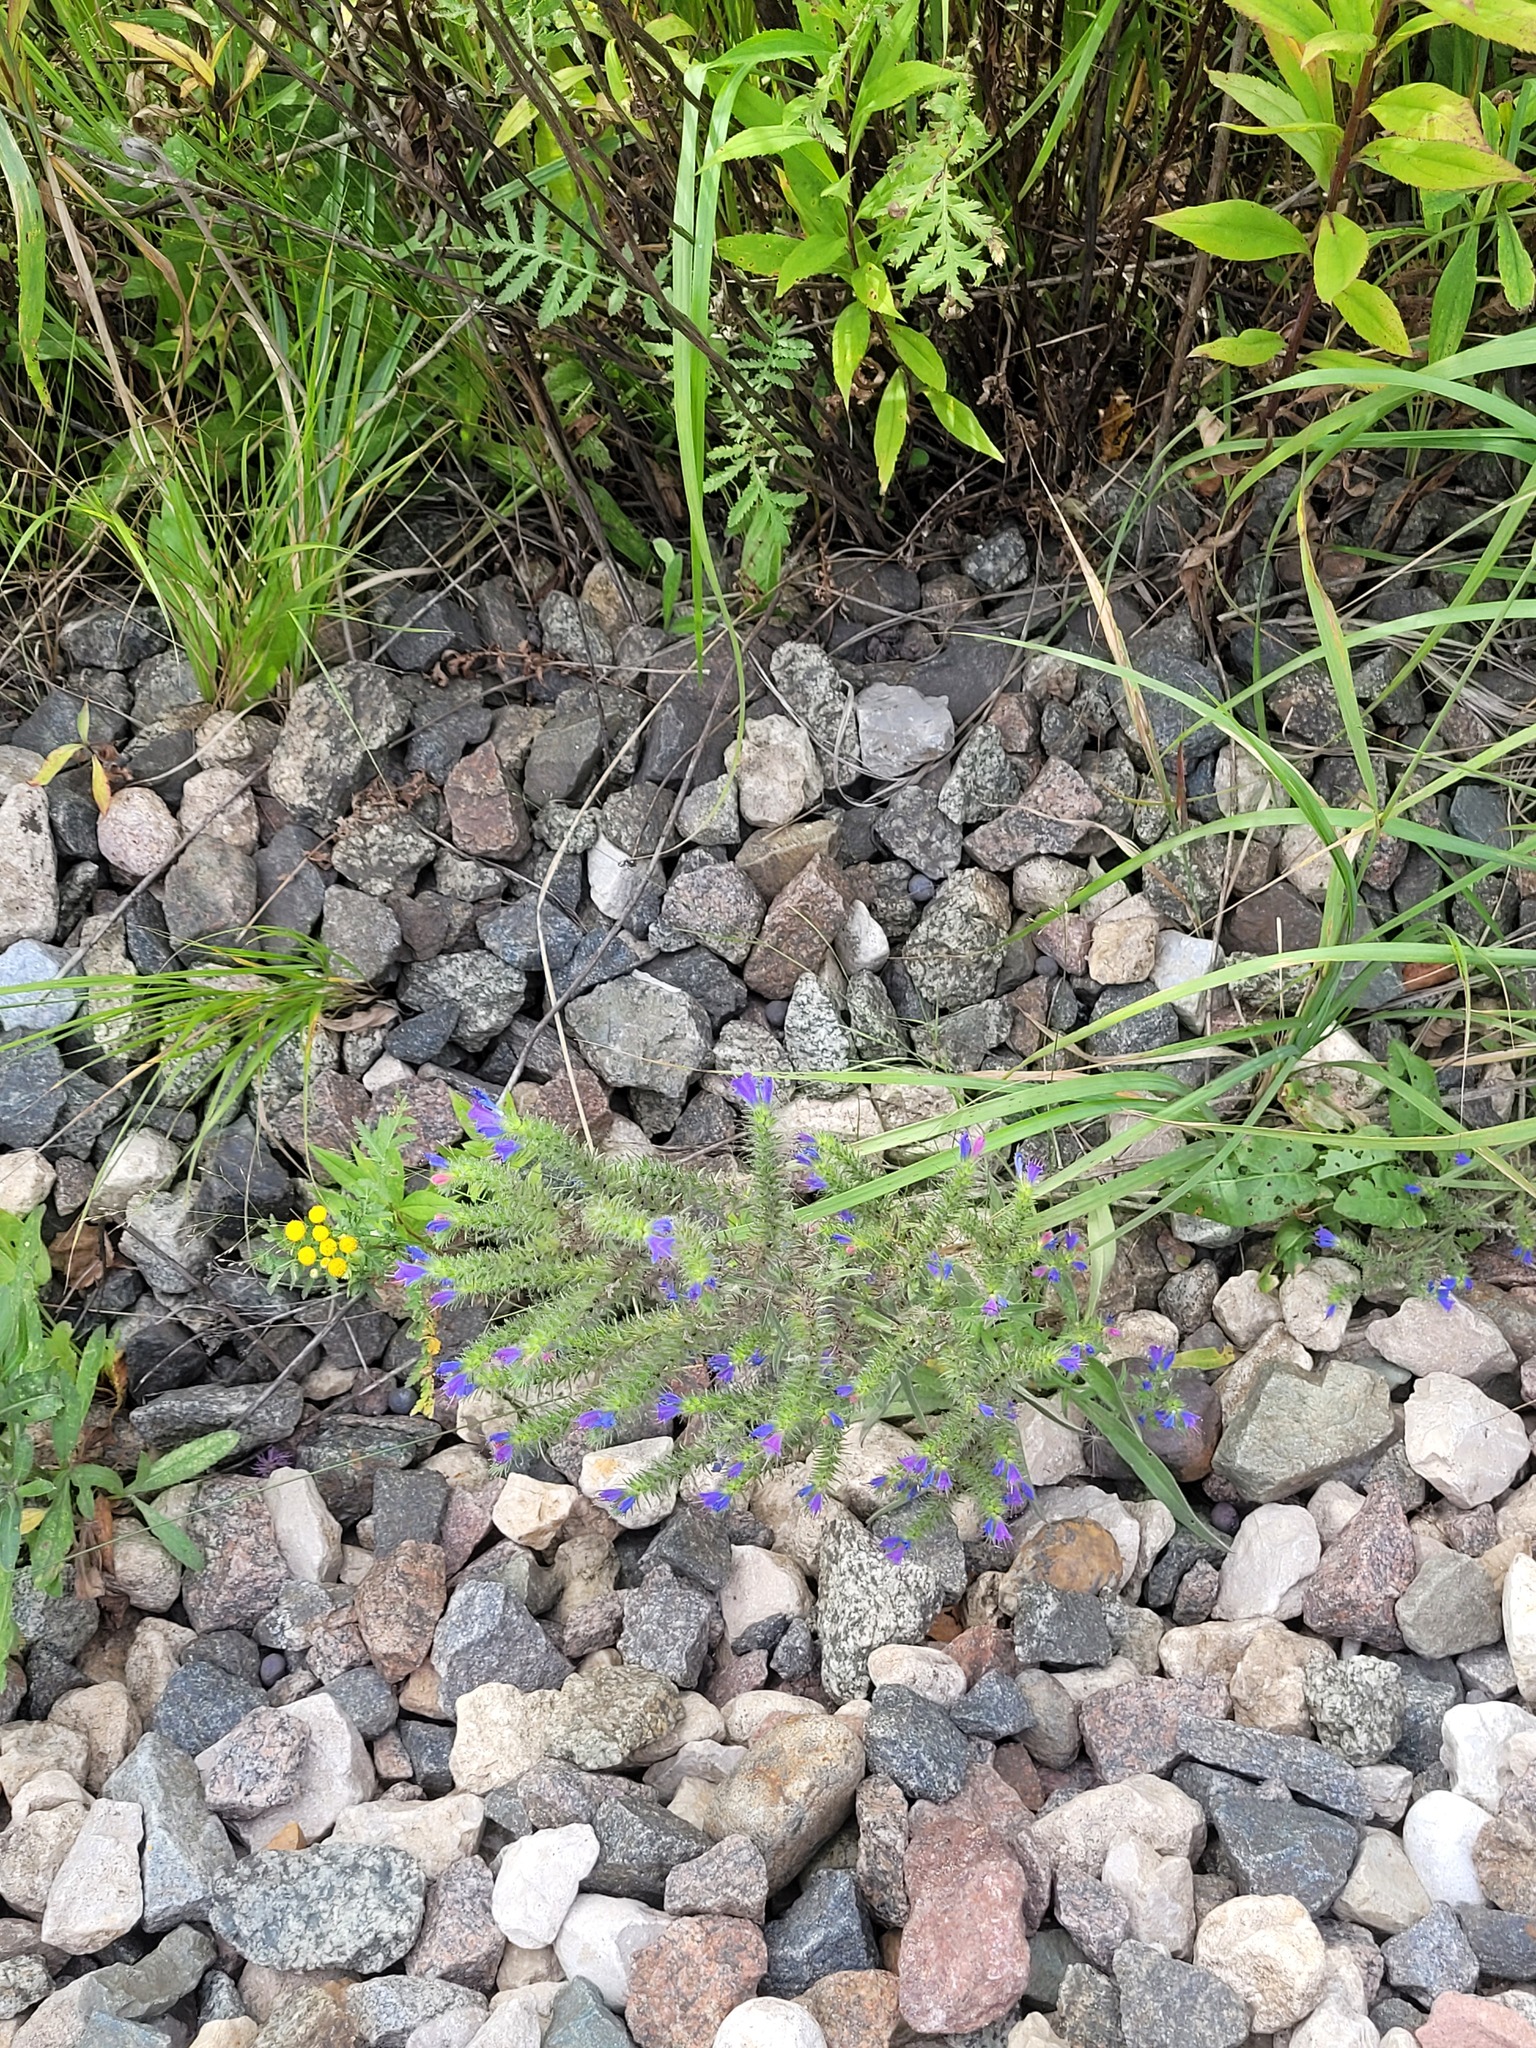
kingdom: Plantae
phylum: Tracheophyta
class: Magnoliopsida
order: Boraginales
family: Boraginaceae
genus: Echium
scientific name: Echium vulgare
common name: Common viper's bugloss
